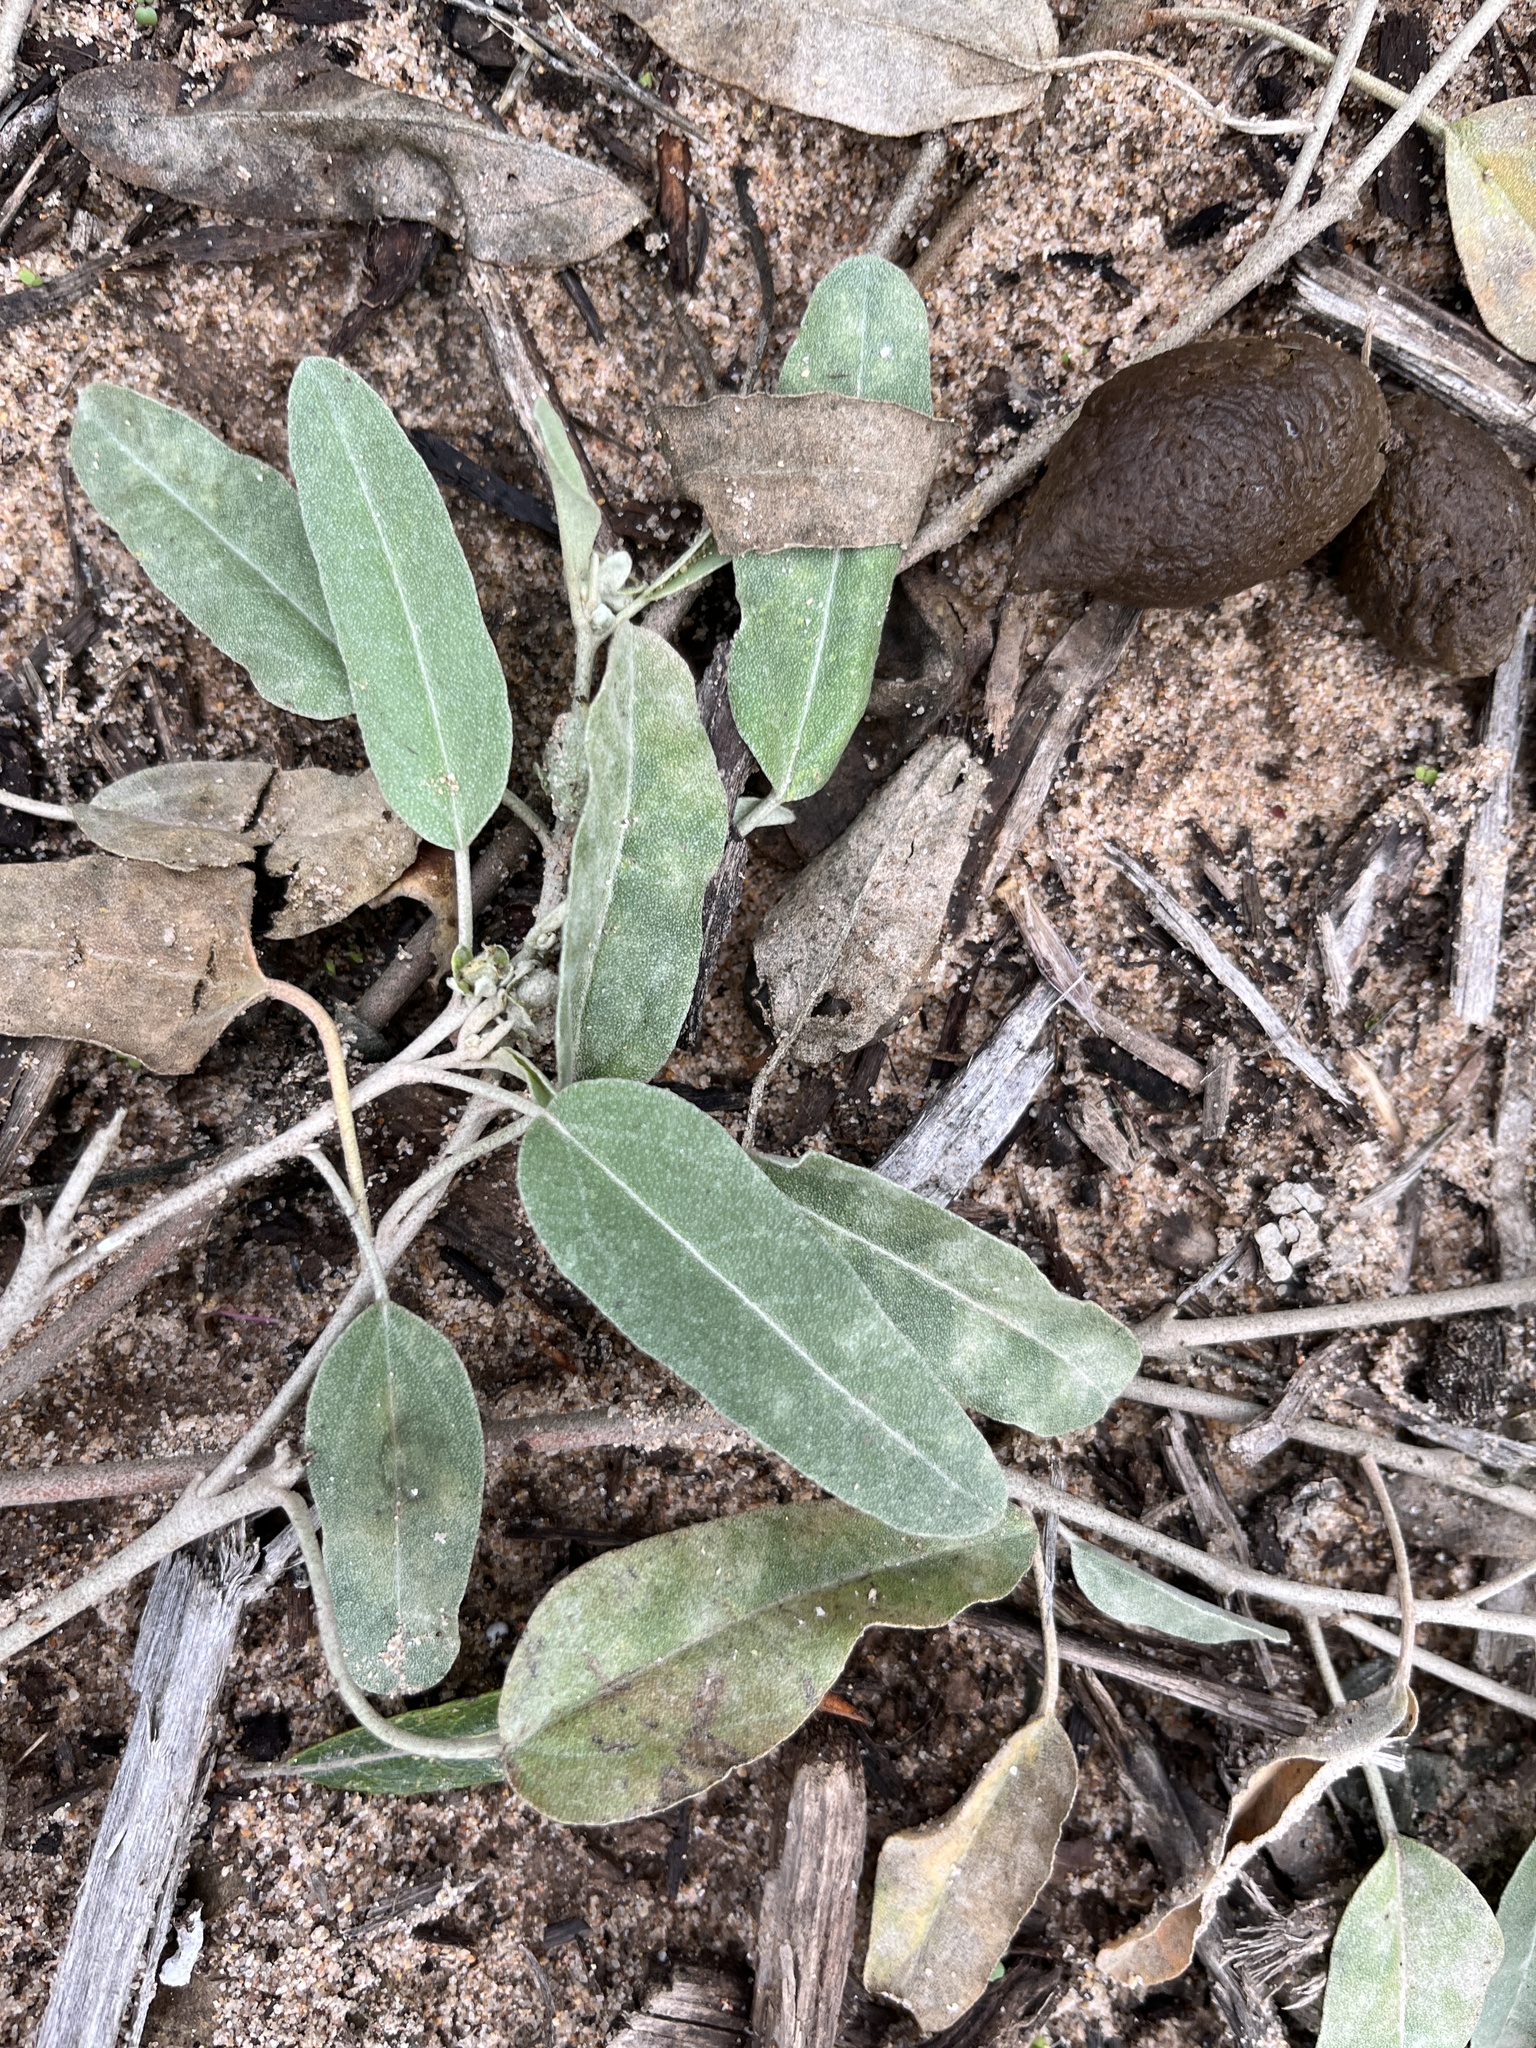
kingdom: Plantae
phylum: Tracheophyta
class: Magnoliopsida
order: Malpighiales
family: Euphorbiaceae
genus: Croton
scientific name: Croton californicus
